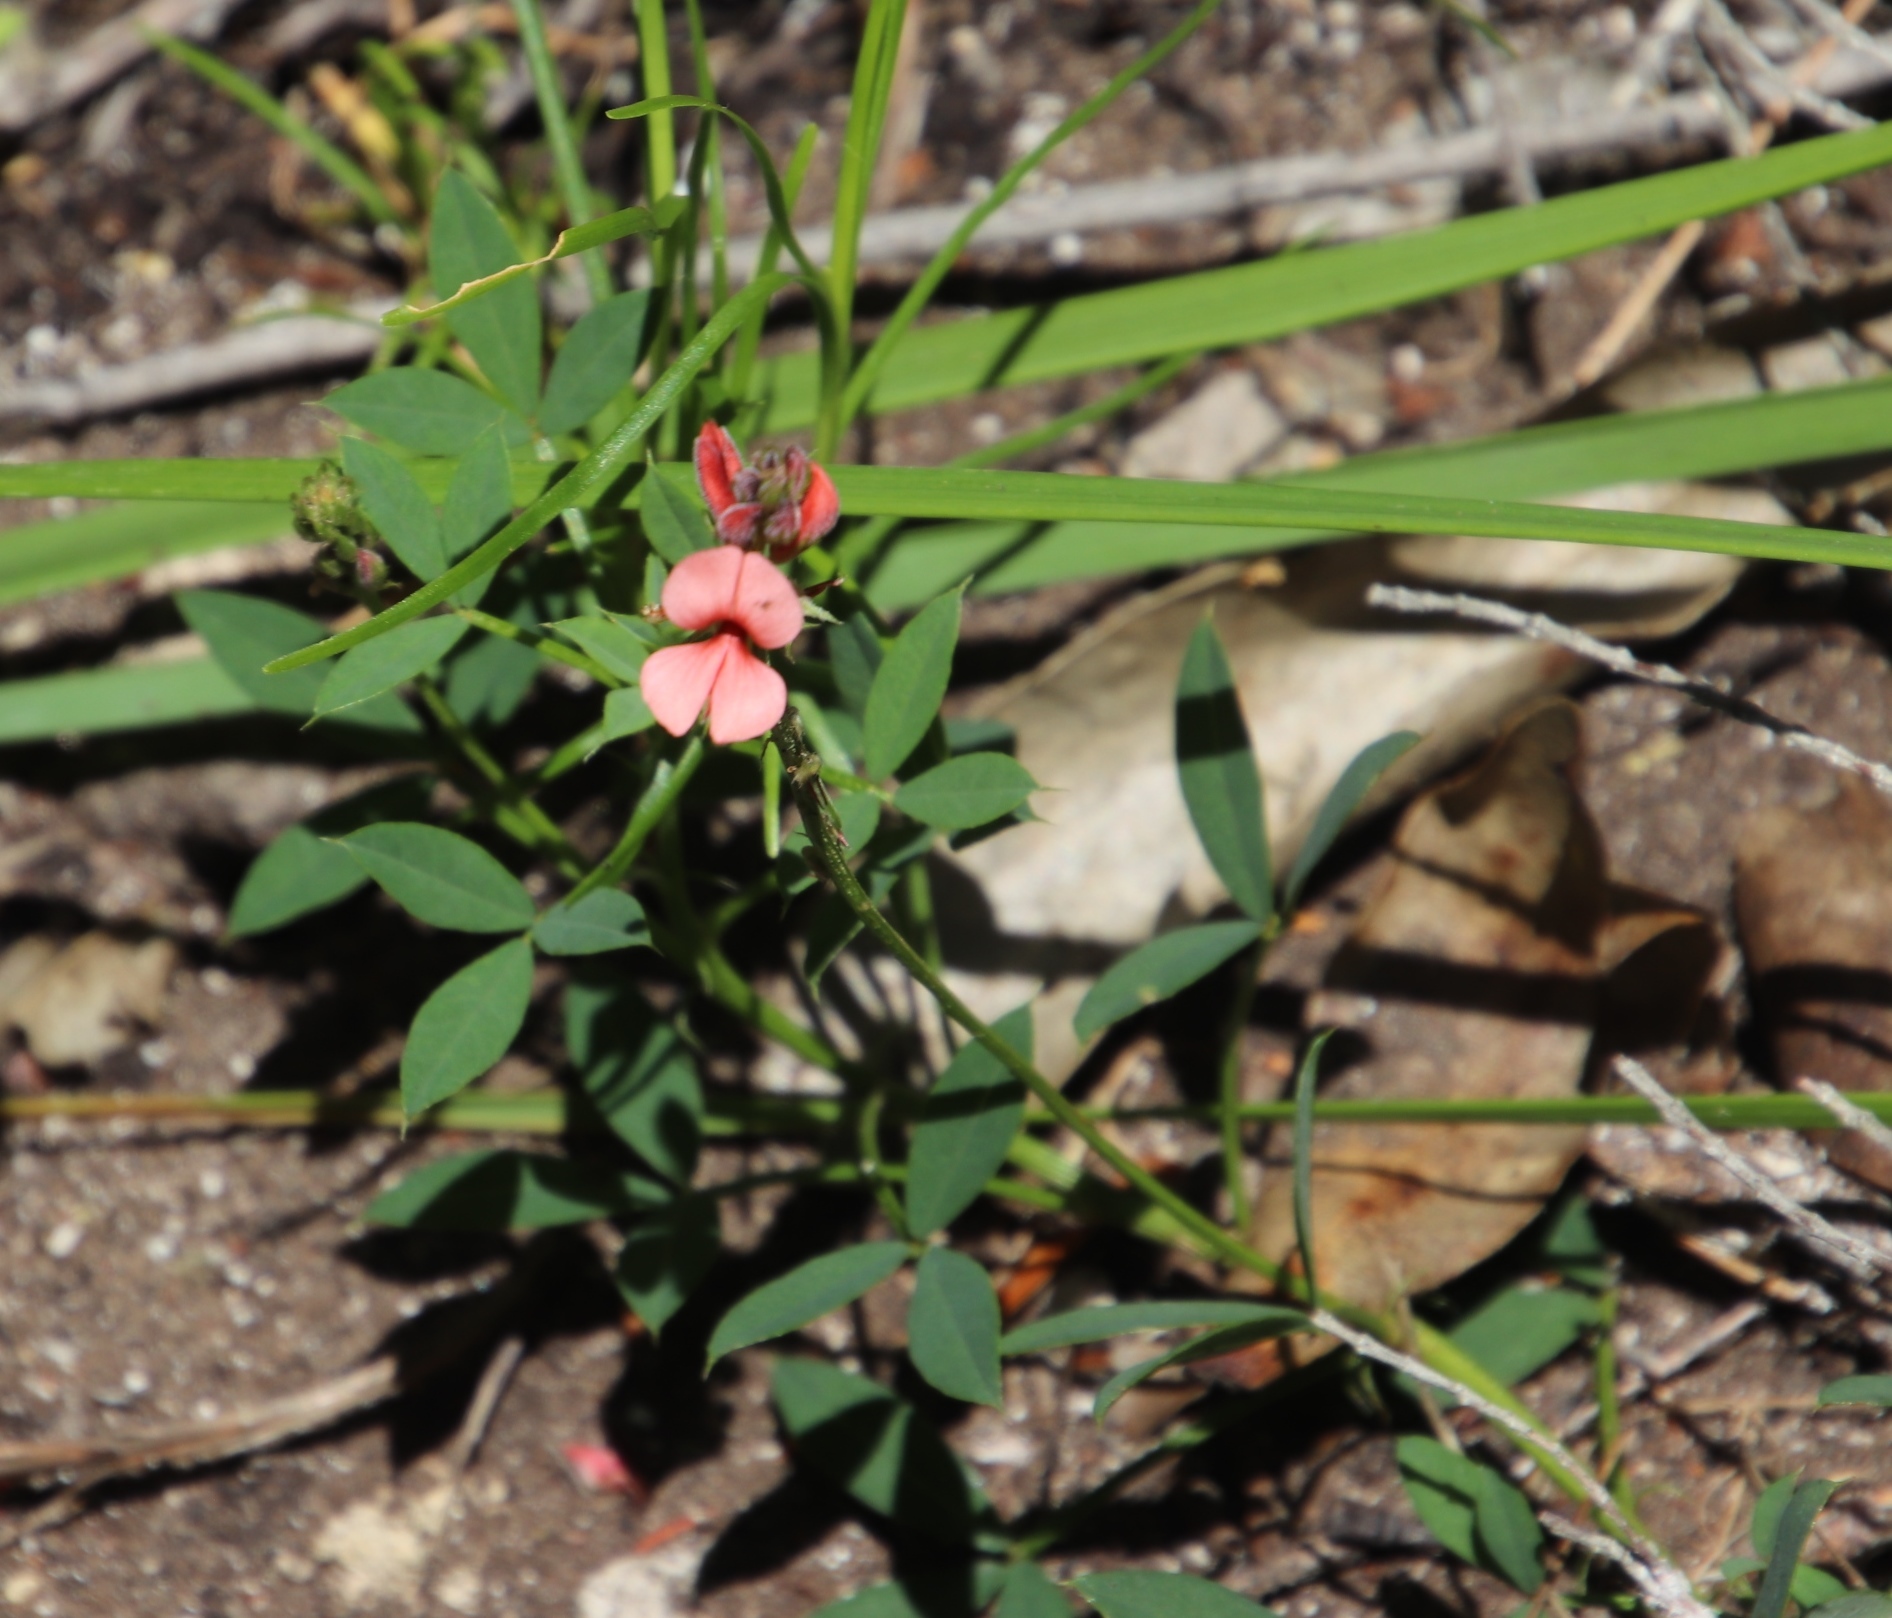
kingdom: Plantae
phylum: Tracheophyta
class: Magnoliopsida
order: Fabales
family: Fabaceae
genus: Indigofera
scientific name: Indigofera heterophylla
